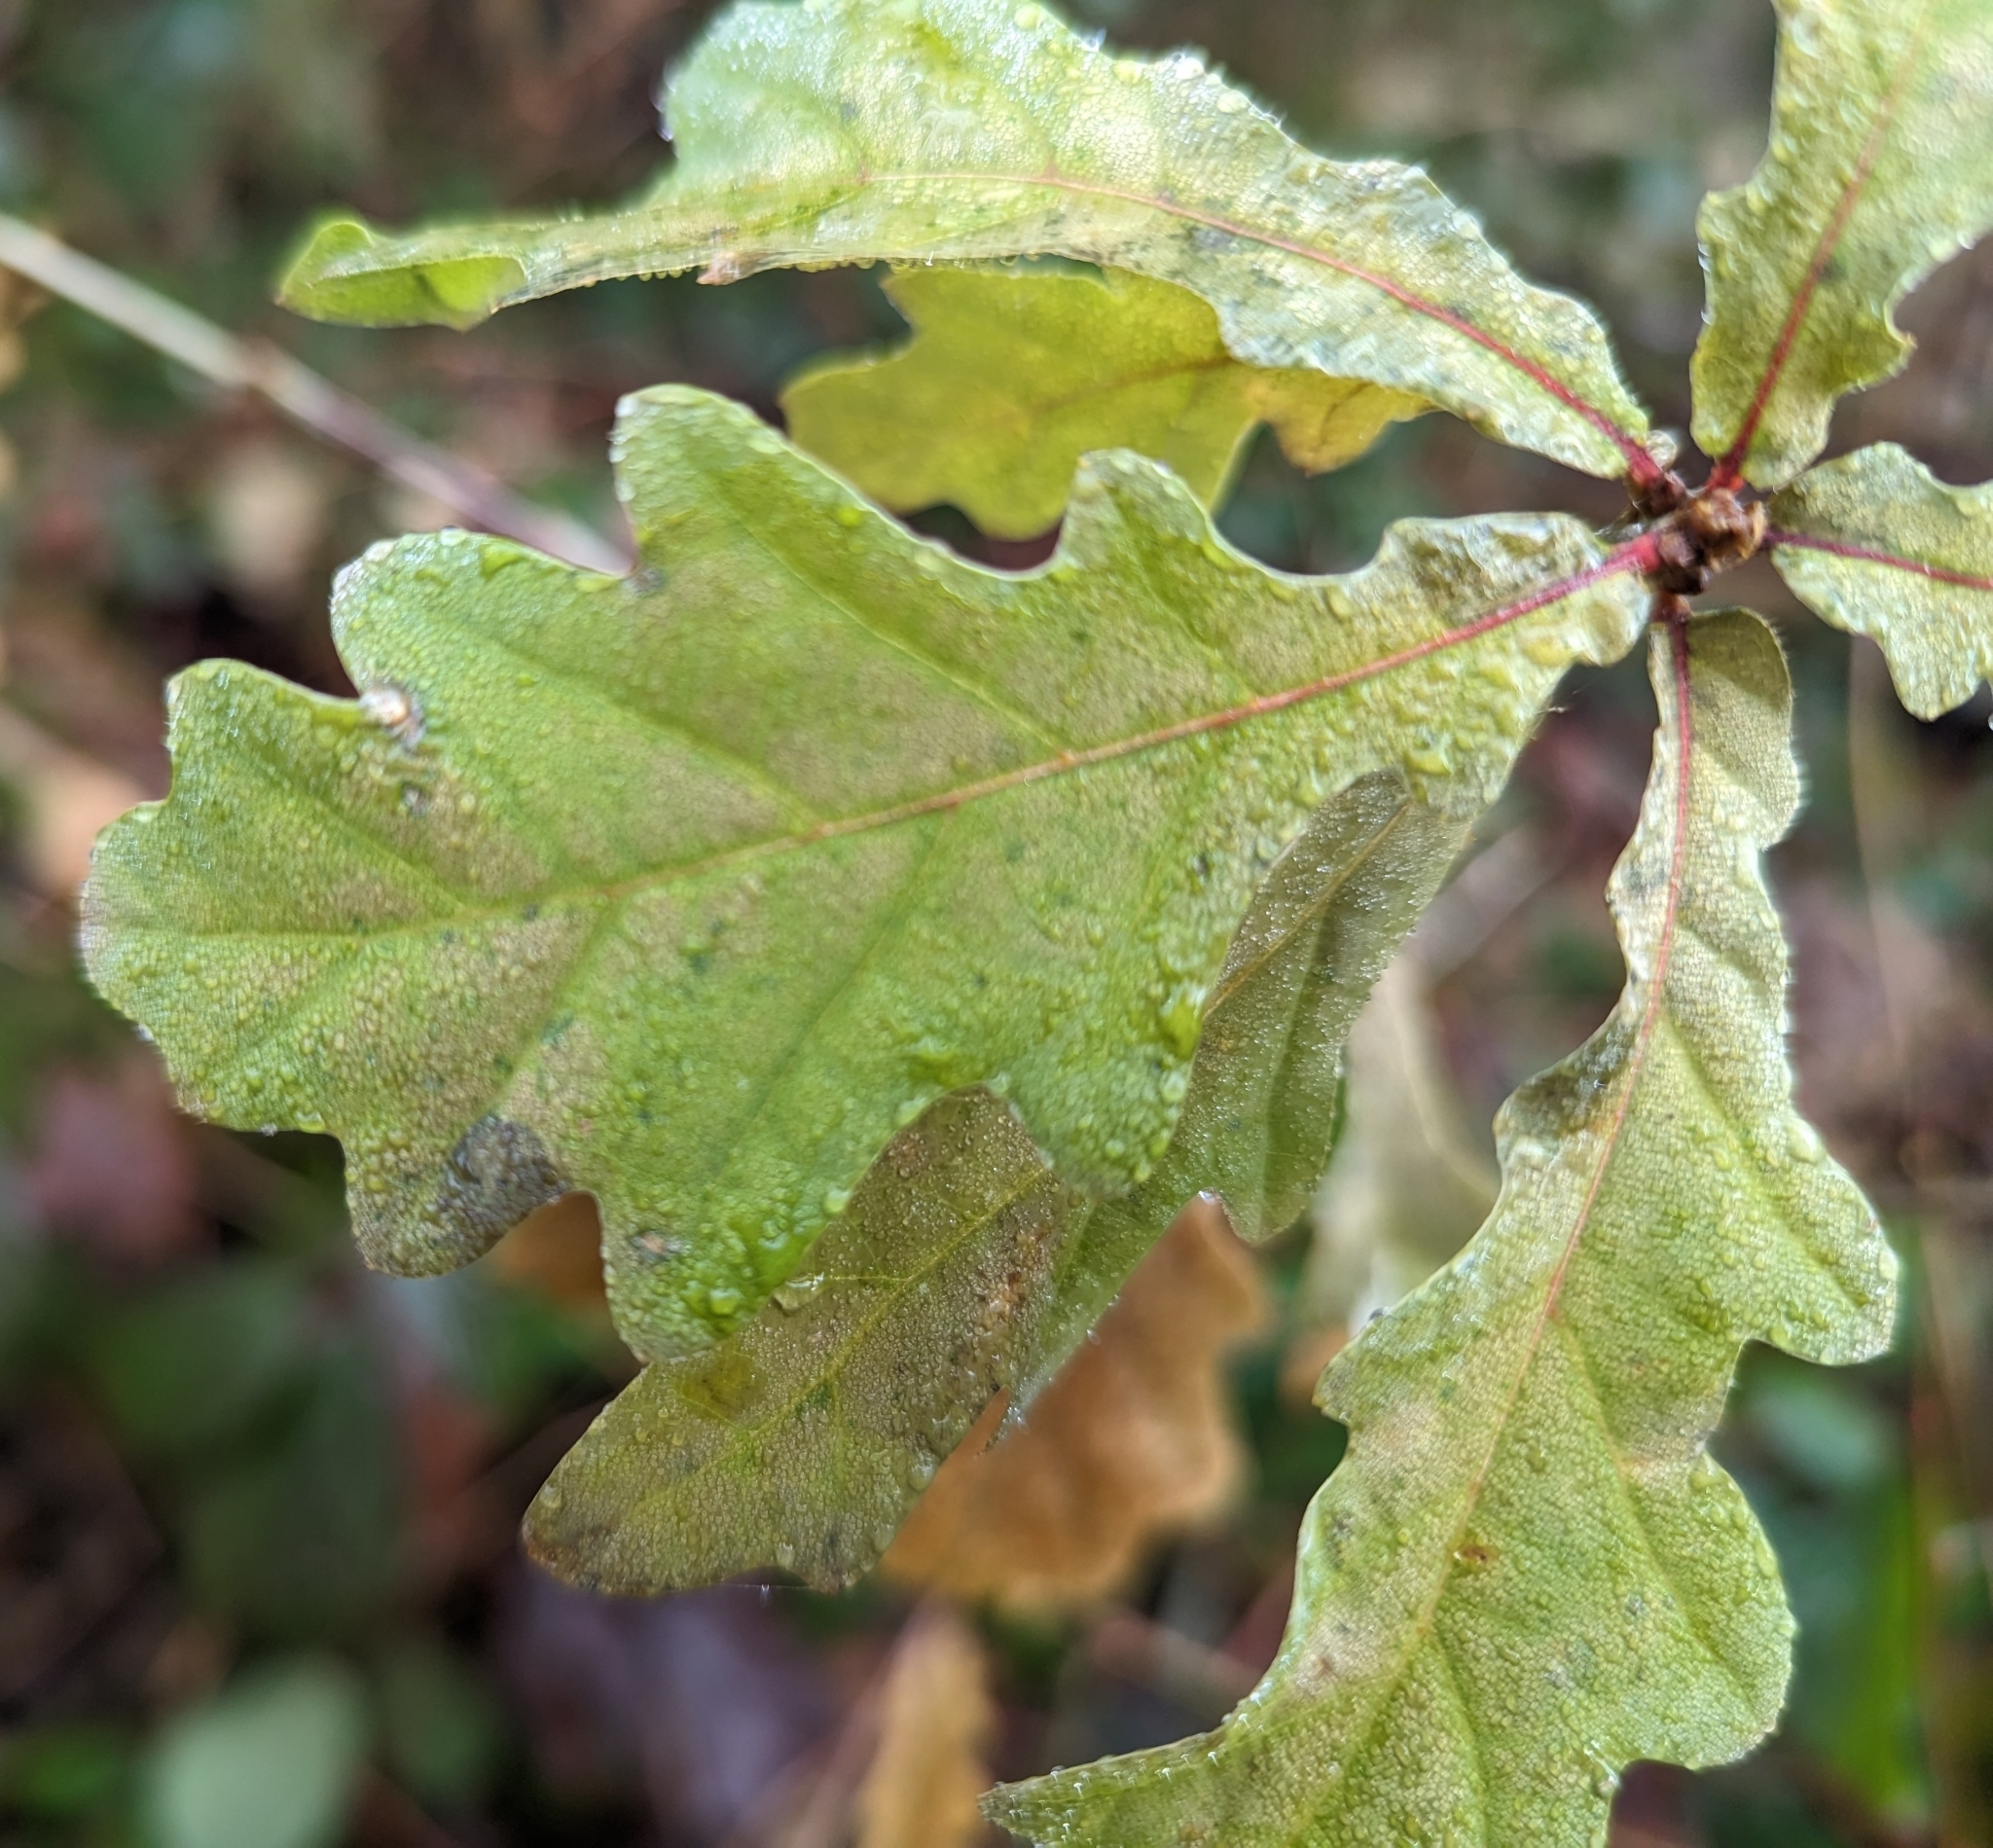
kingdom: Plantae
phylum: Tracheophyta
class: Magnoliopsida
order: Fagales
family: Fagaceae
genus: Quercus
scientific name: Quercus robur
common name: Pedunculate oak
